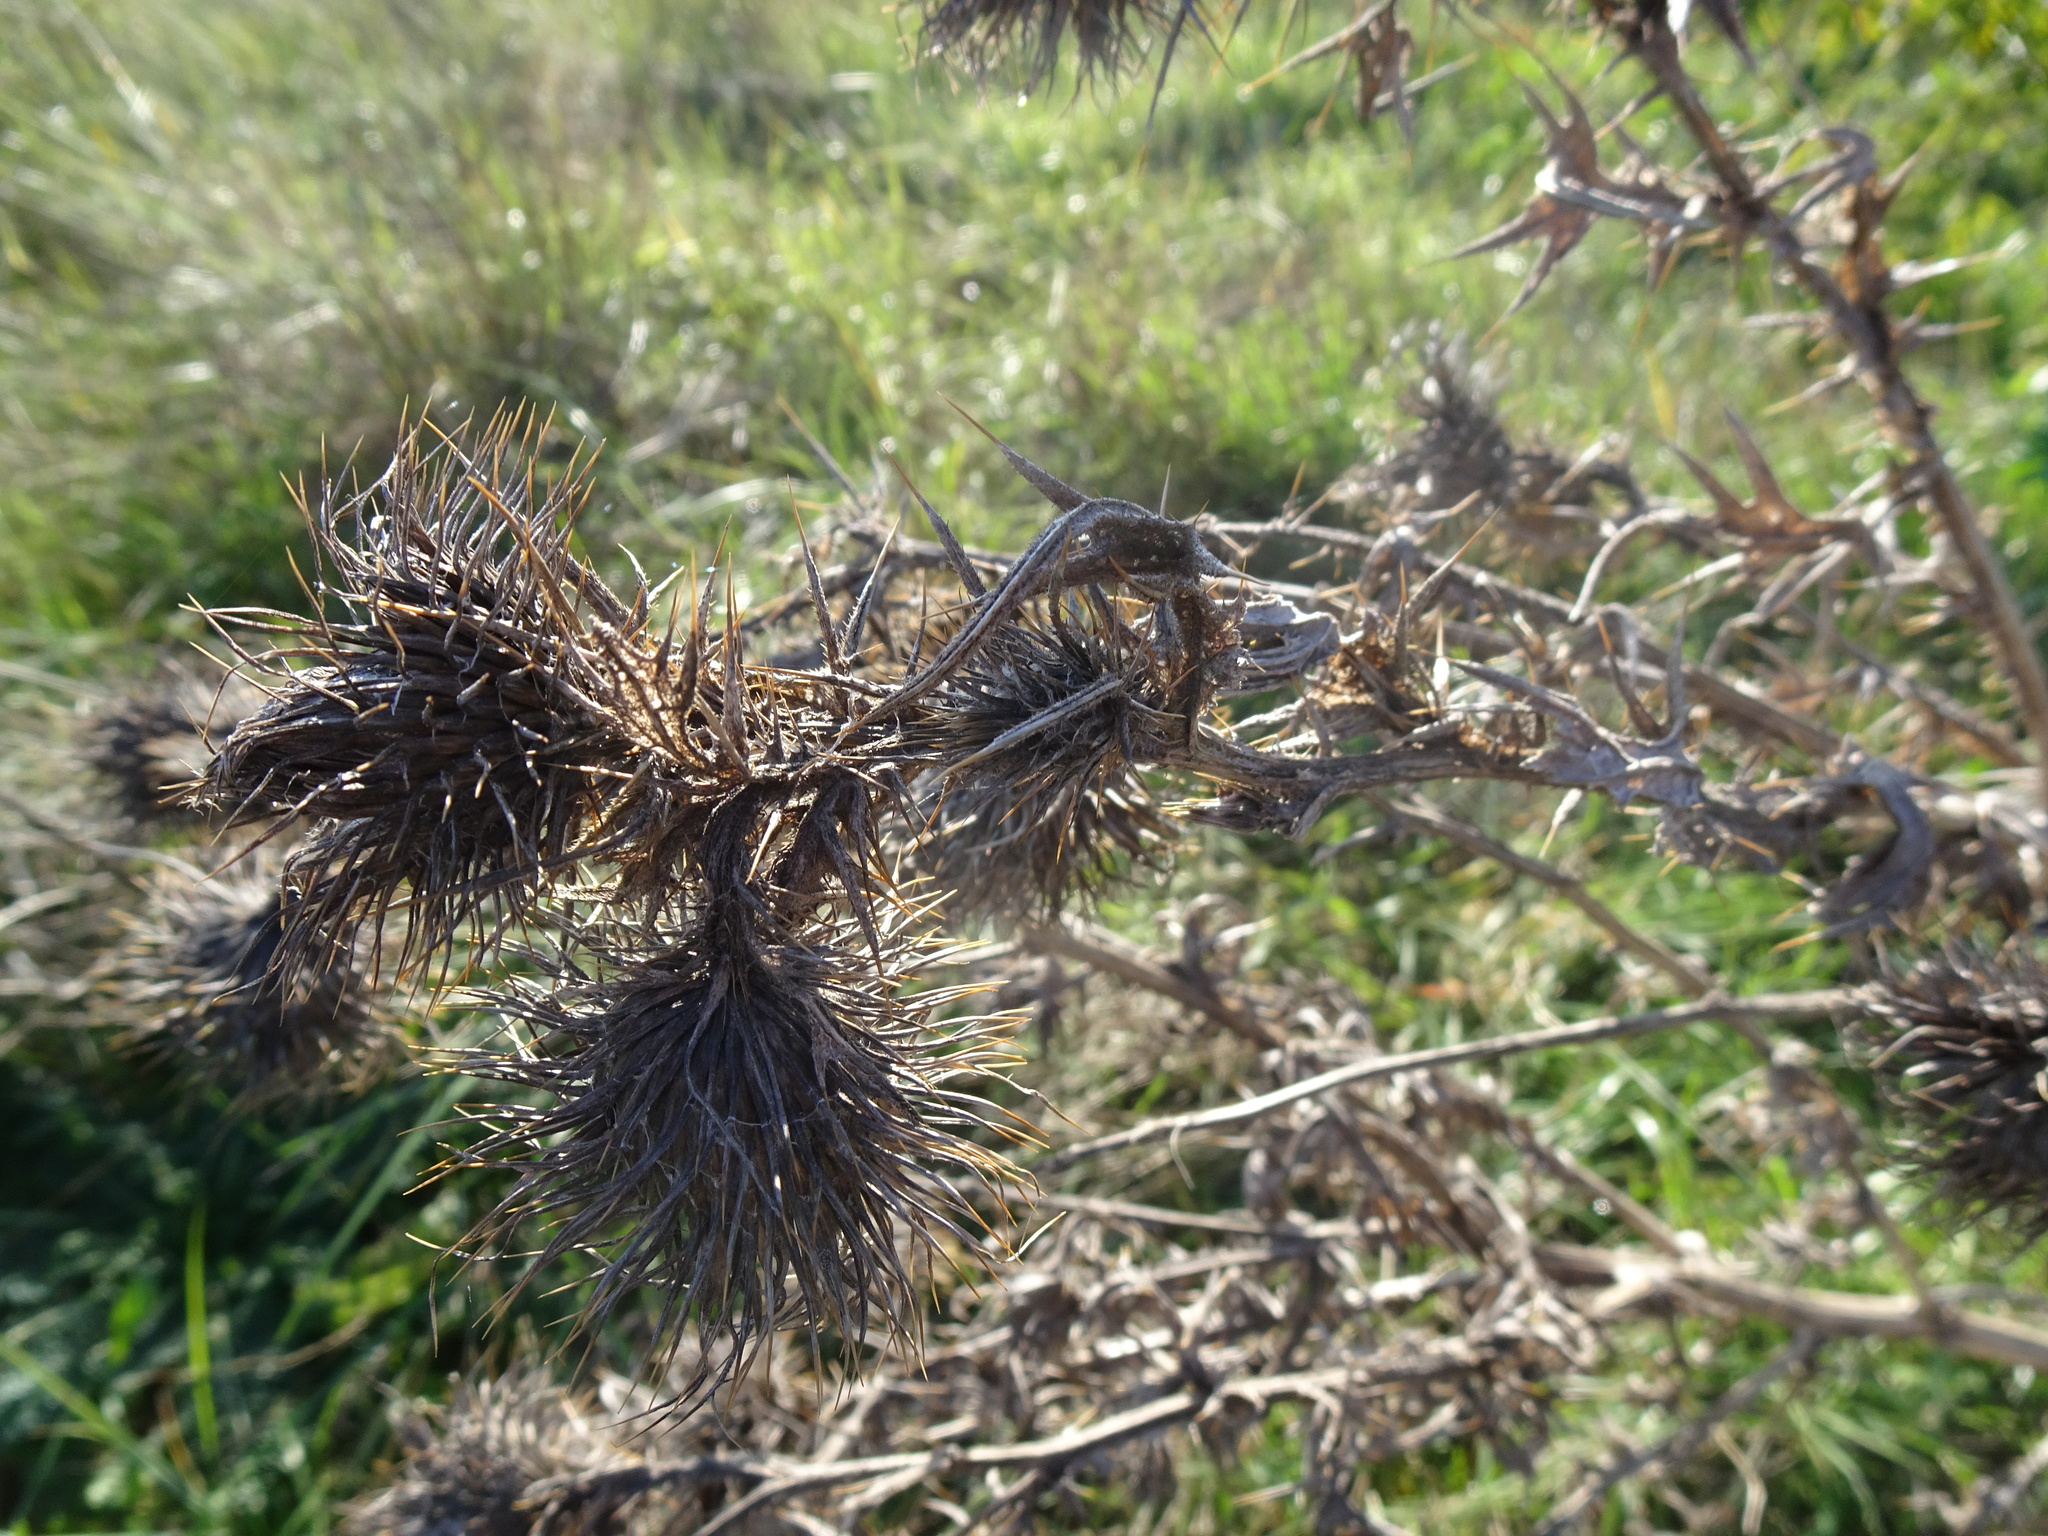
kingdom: Plantae
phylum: Tracheophyta
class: Magnoliopsida
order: Asterales
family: Asteraceae
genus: Cirsium
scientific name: Cirsium vulgare
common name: Bull thistle
